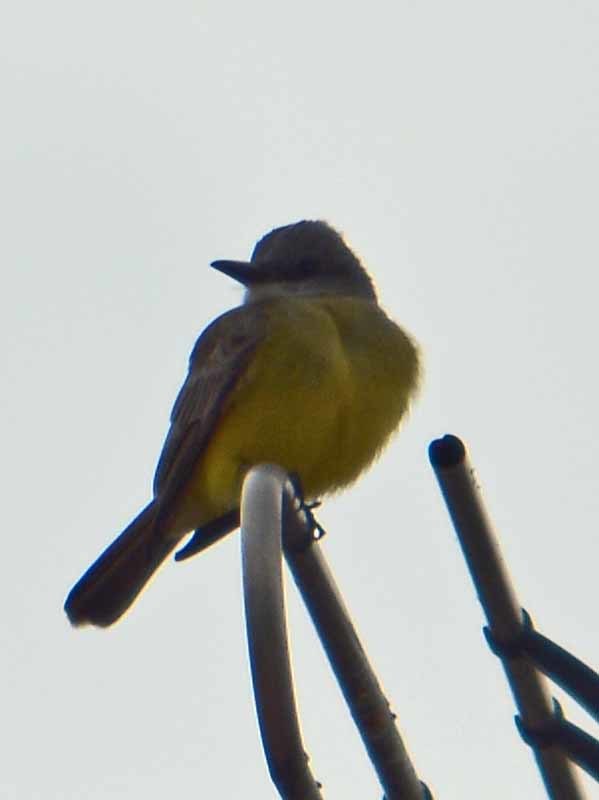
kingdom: Animalia
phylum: Chordata
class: Aves
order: Passeriformes
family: Tyrannidae
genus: Tyrannus
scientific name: Tyrannus melancholicus
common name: Tropical kingbird
